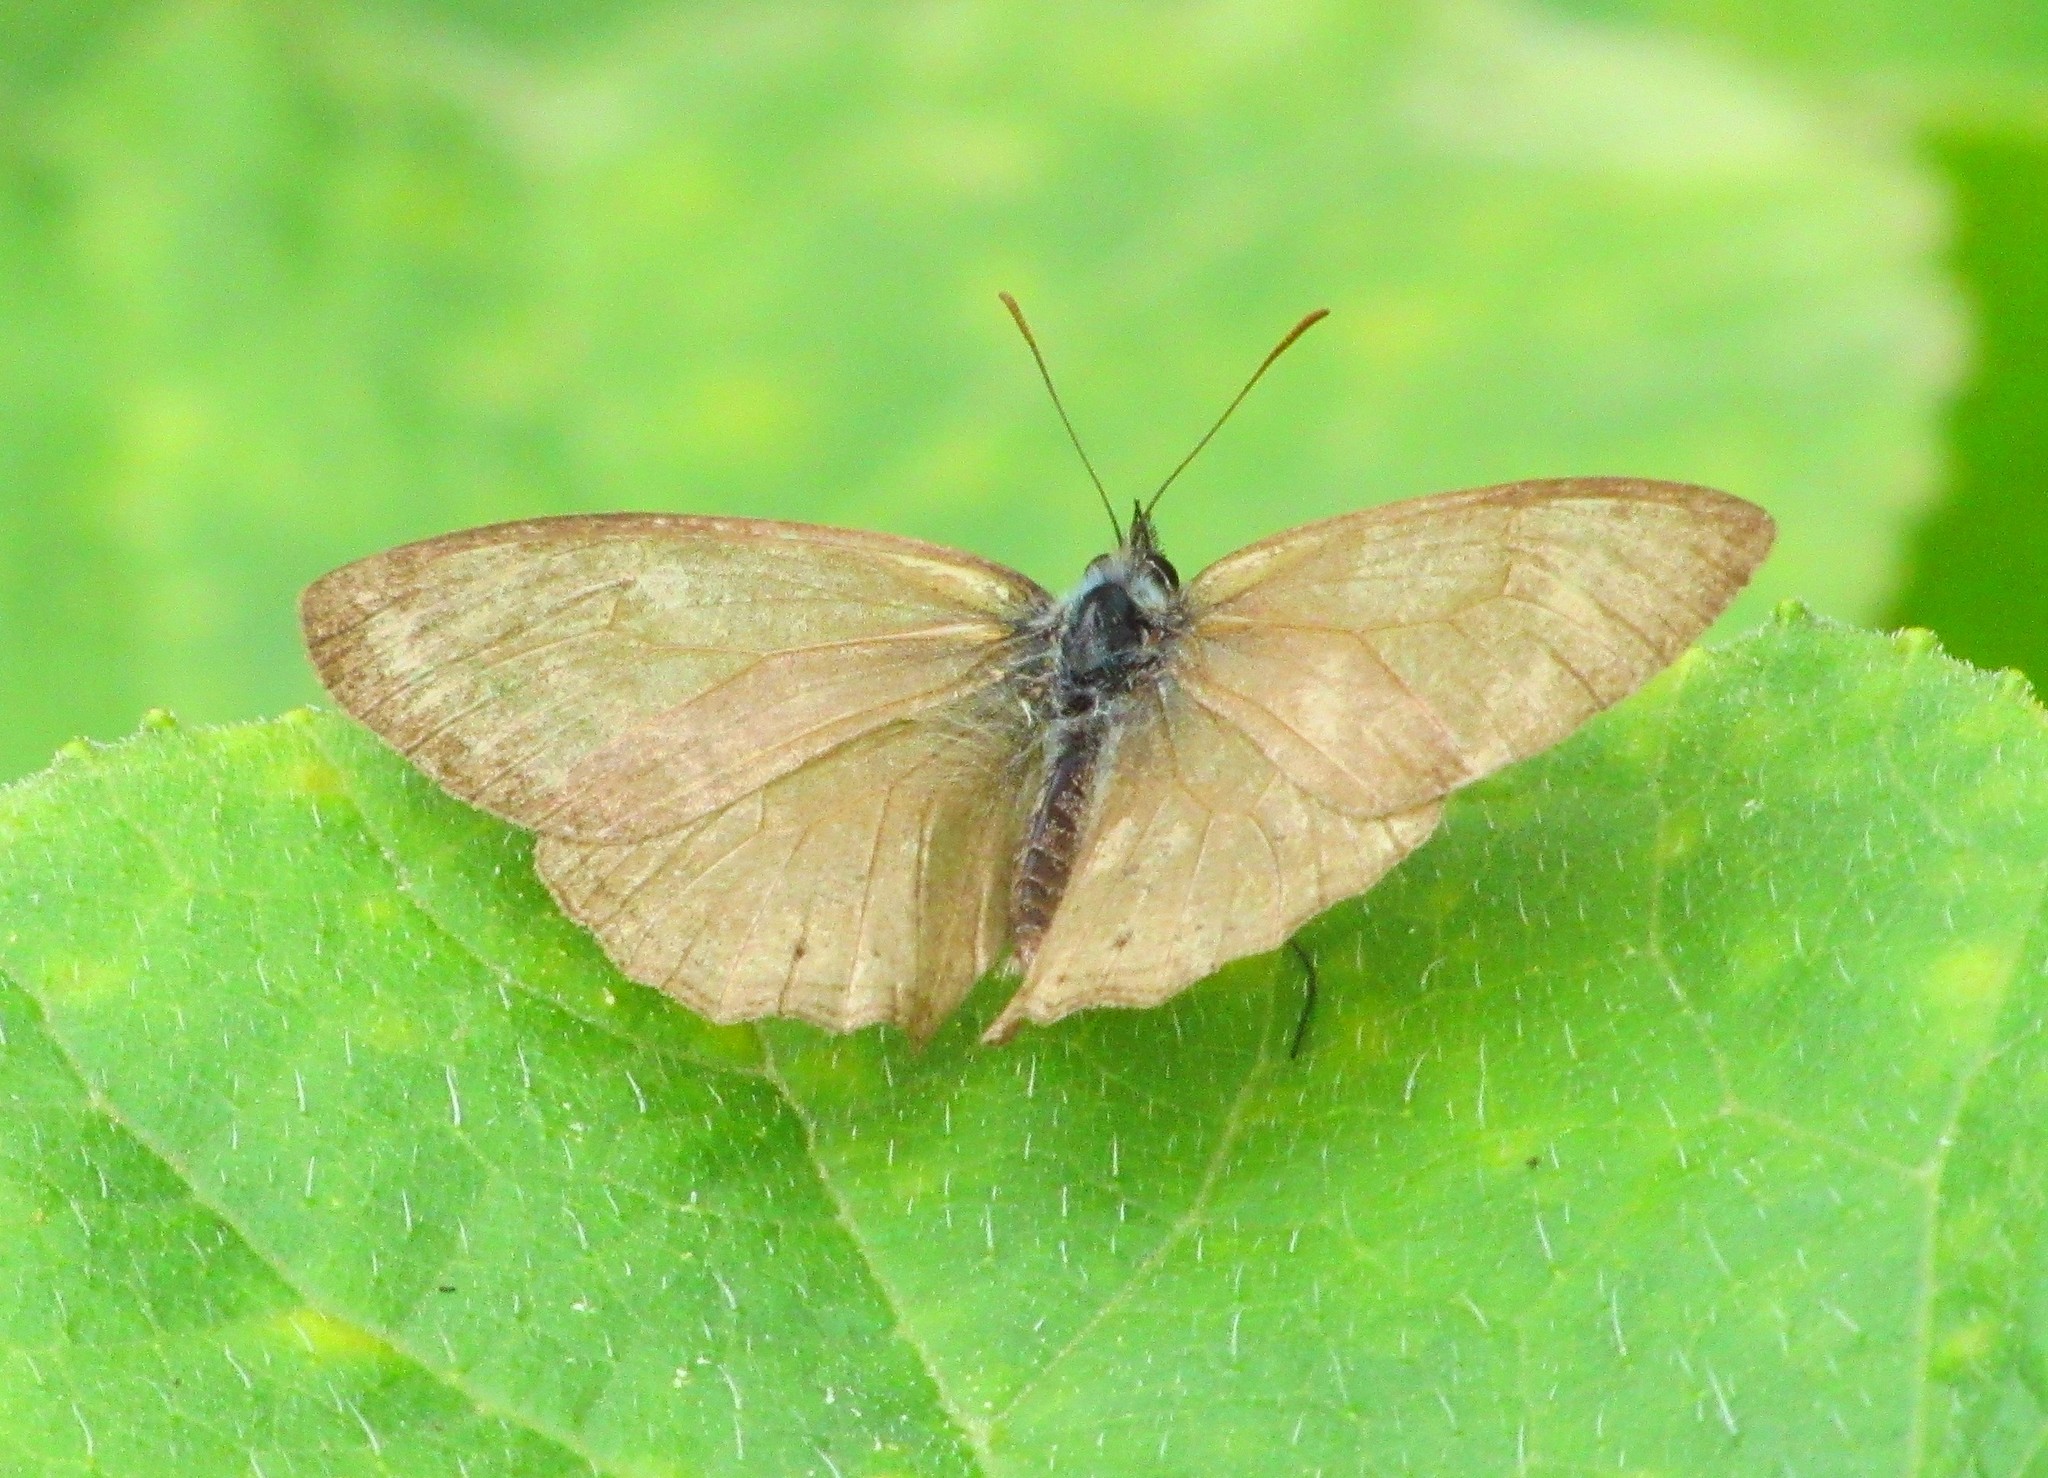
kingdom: Animalia
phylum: Arthropoda
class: Insecta
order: Lepidoptera
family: Nymphalidae
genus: Euptychiina
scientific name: Euptychiina
